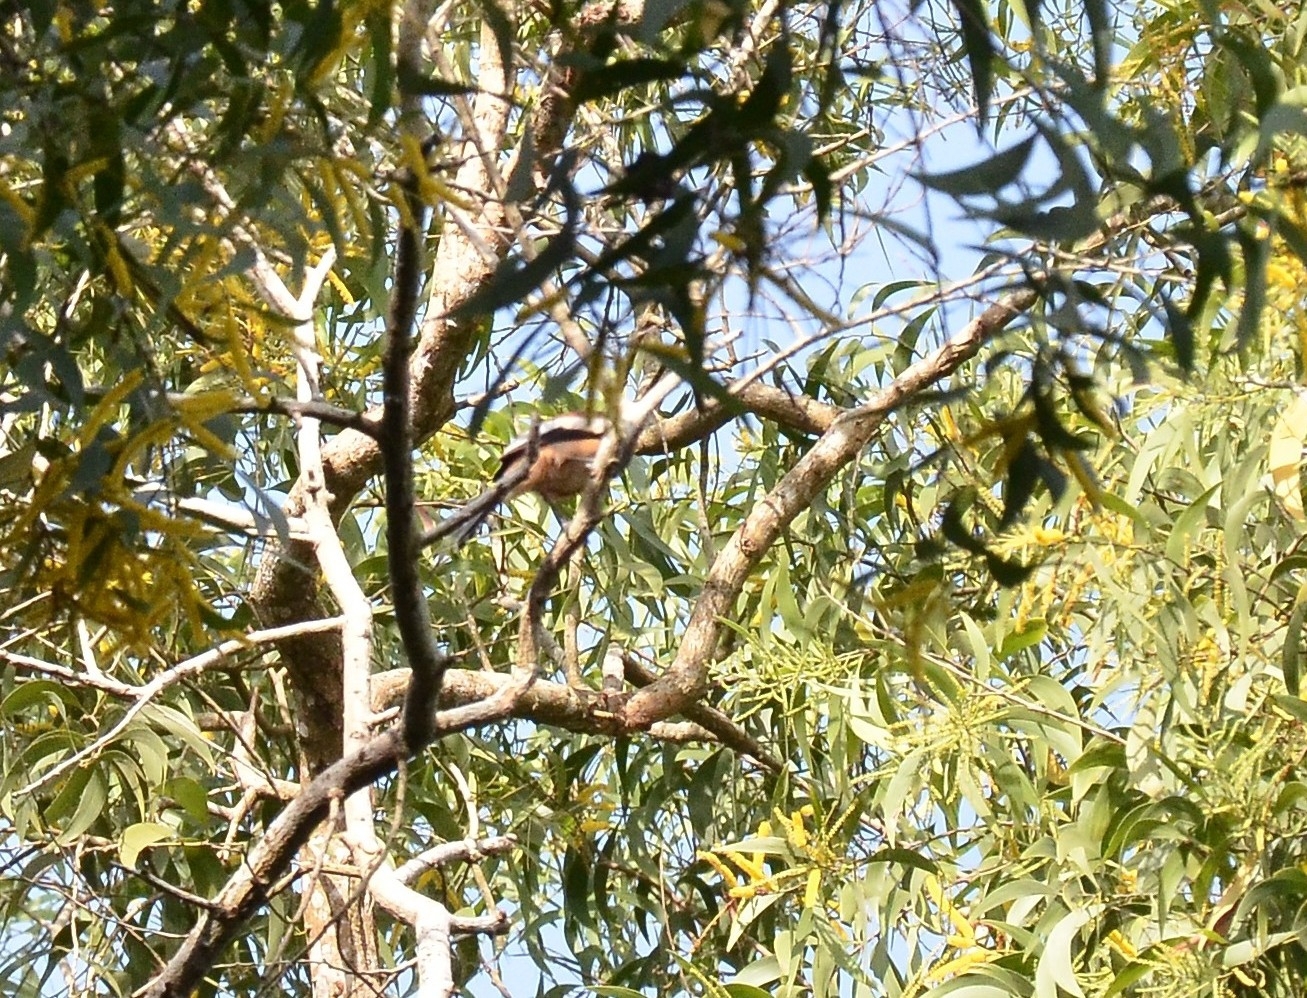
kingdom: Animalia
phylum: Chordata
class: Aves
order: Passeriformes
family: Corvidae
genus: Dendrocitta
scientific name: Dendrocitta vagabunda
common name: Rufous treepie
